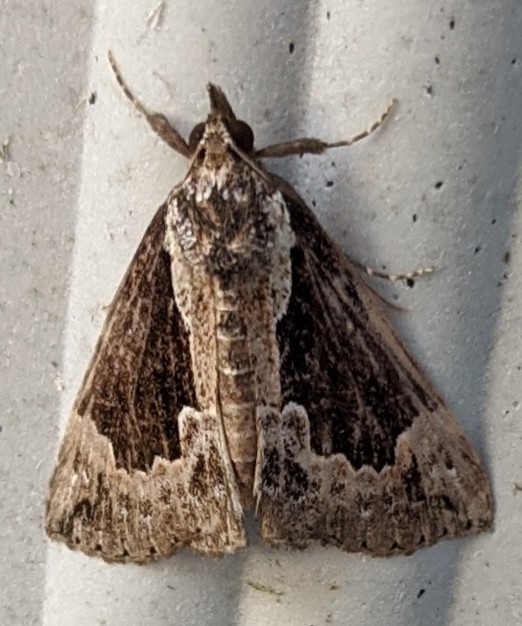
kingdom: Animalia
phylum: Arthropoda
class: Insecta
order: Lepidoptera
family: Erebidae
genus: Hypena
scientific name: Hypena baltimoralis
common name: Baltimore snout
